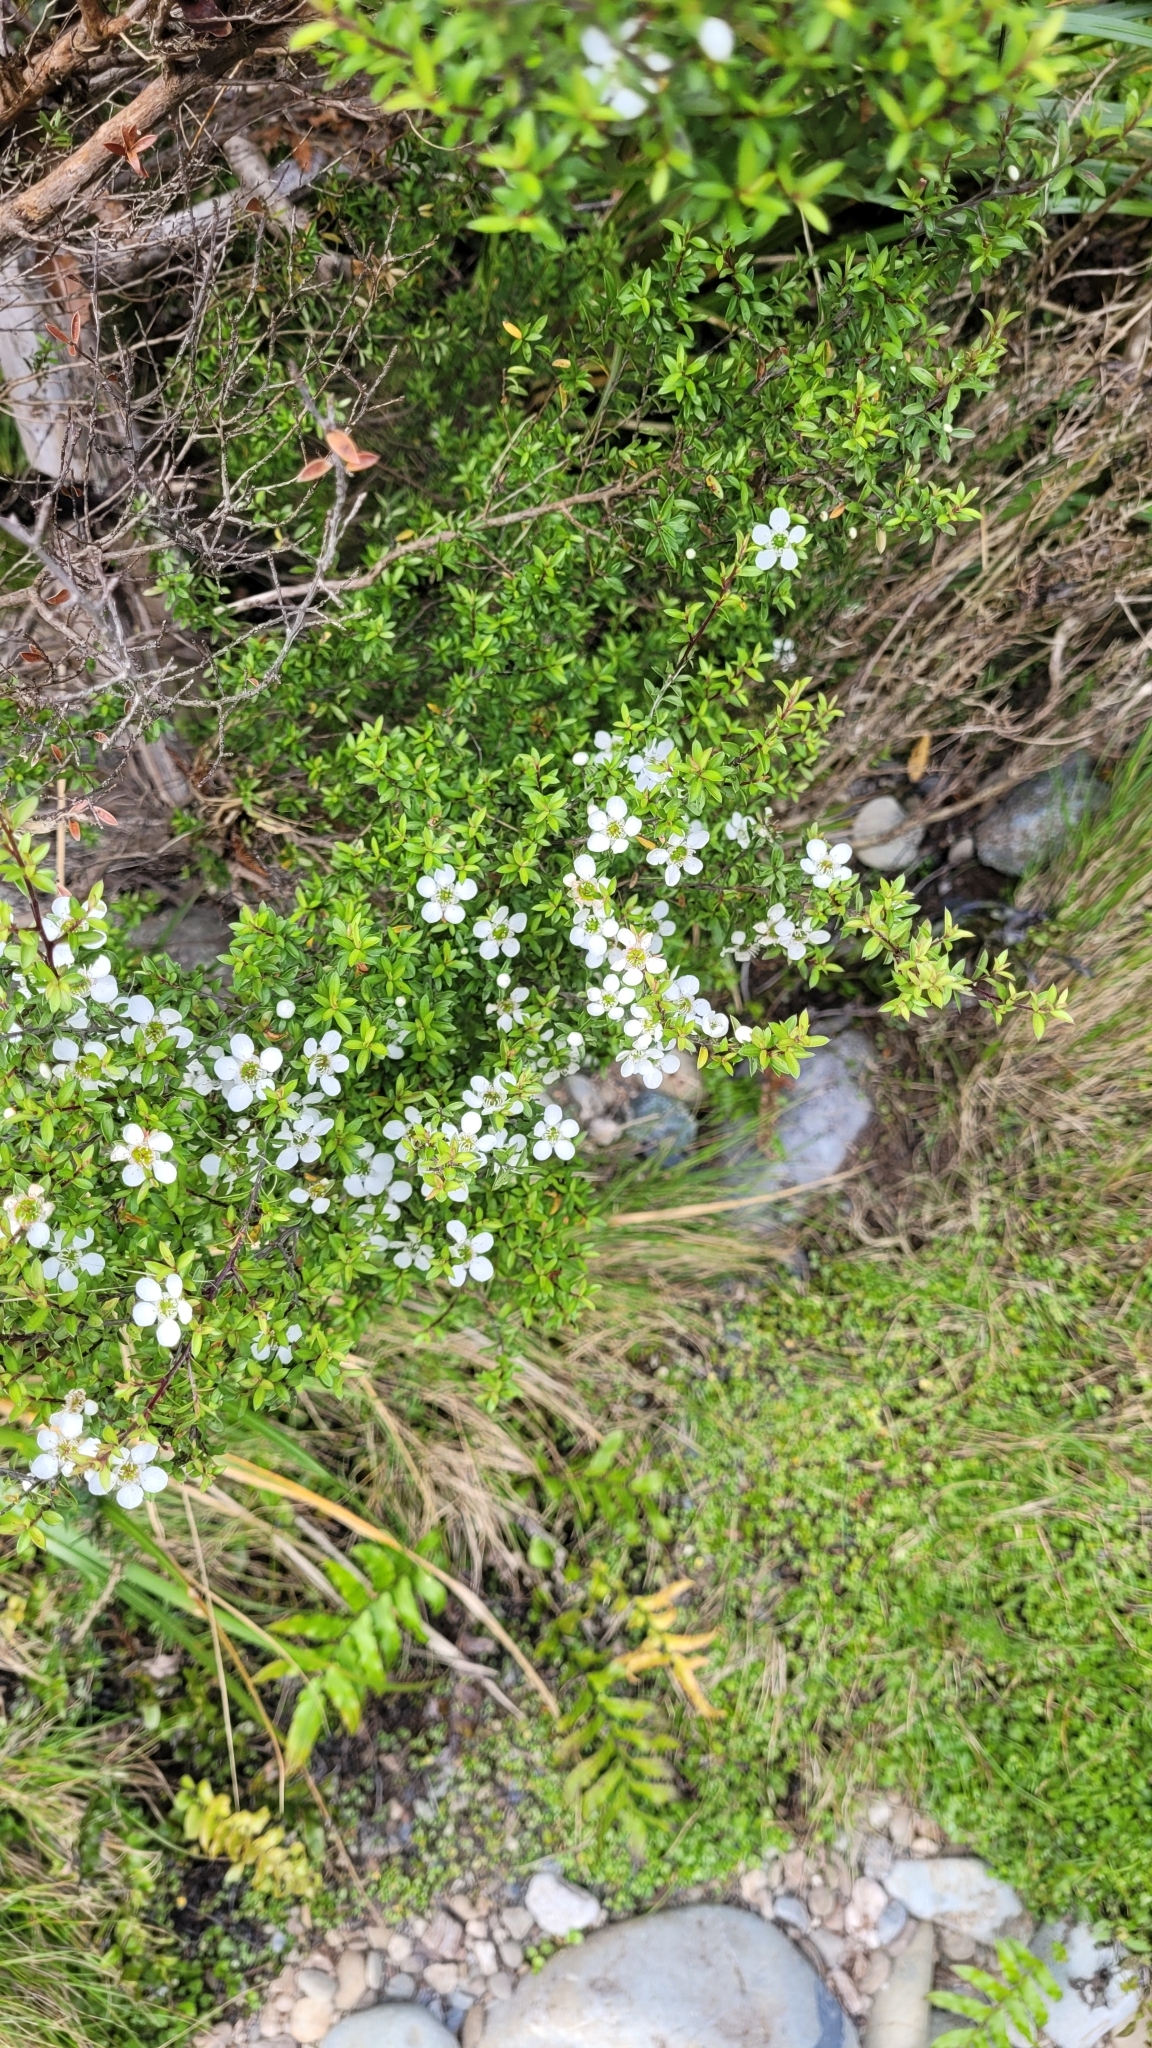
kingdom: Plantae
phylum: Tracheophyta
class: Magnoliopsida
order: Myrtales
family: Myrtaceae
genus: Leptospermum
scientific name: Leptospermum scoparium
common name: Broom tea-tree
